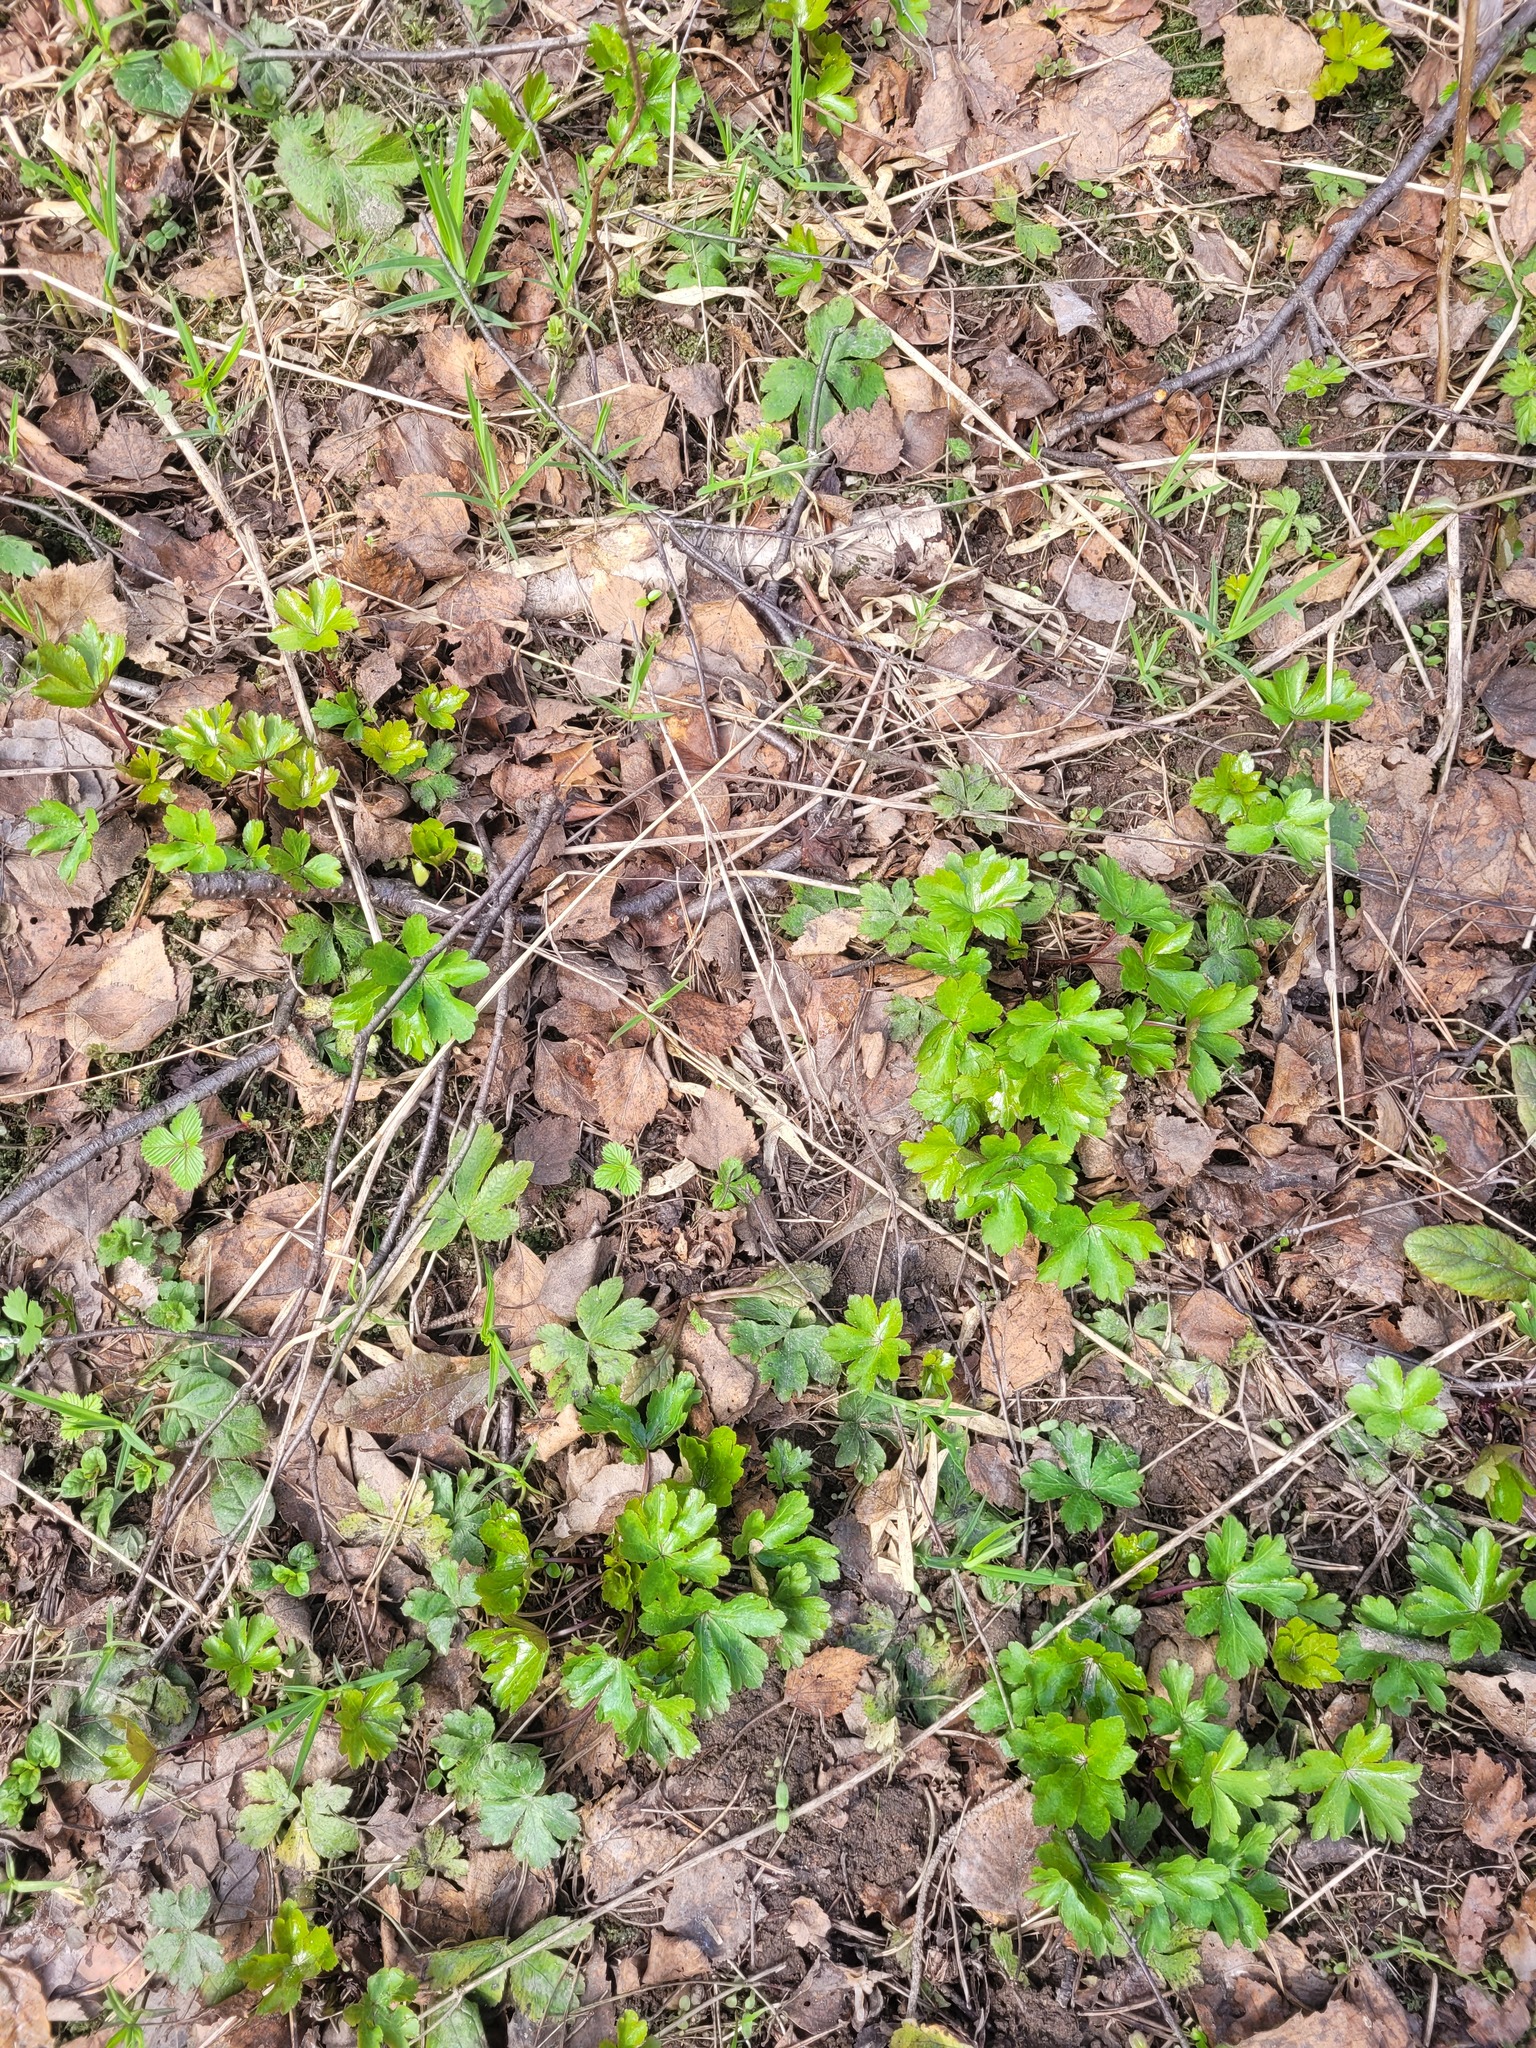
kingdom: Plantae
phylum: Tracheophyta
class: Magnoliopsida
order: Apiales
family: Apiaceae
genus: Sanicula
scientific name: Sanicula europaea
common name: Sanicle
